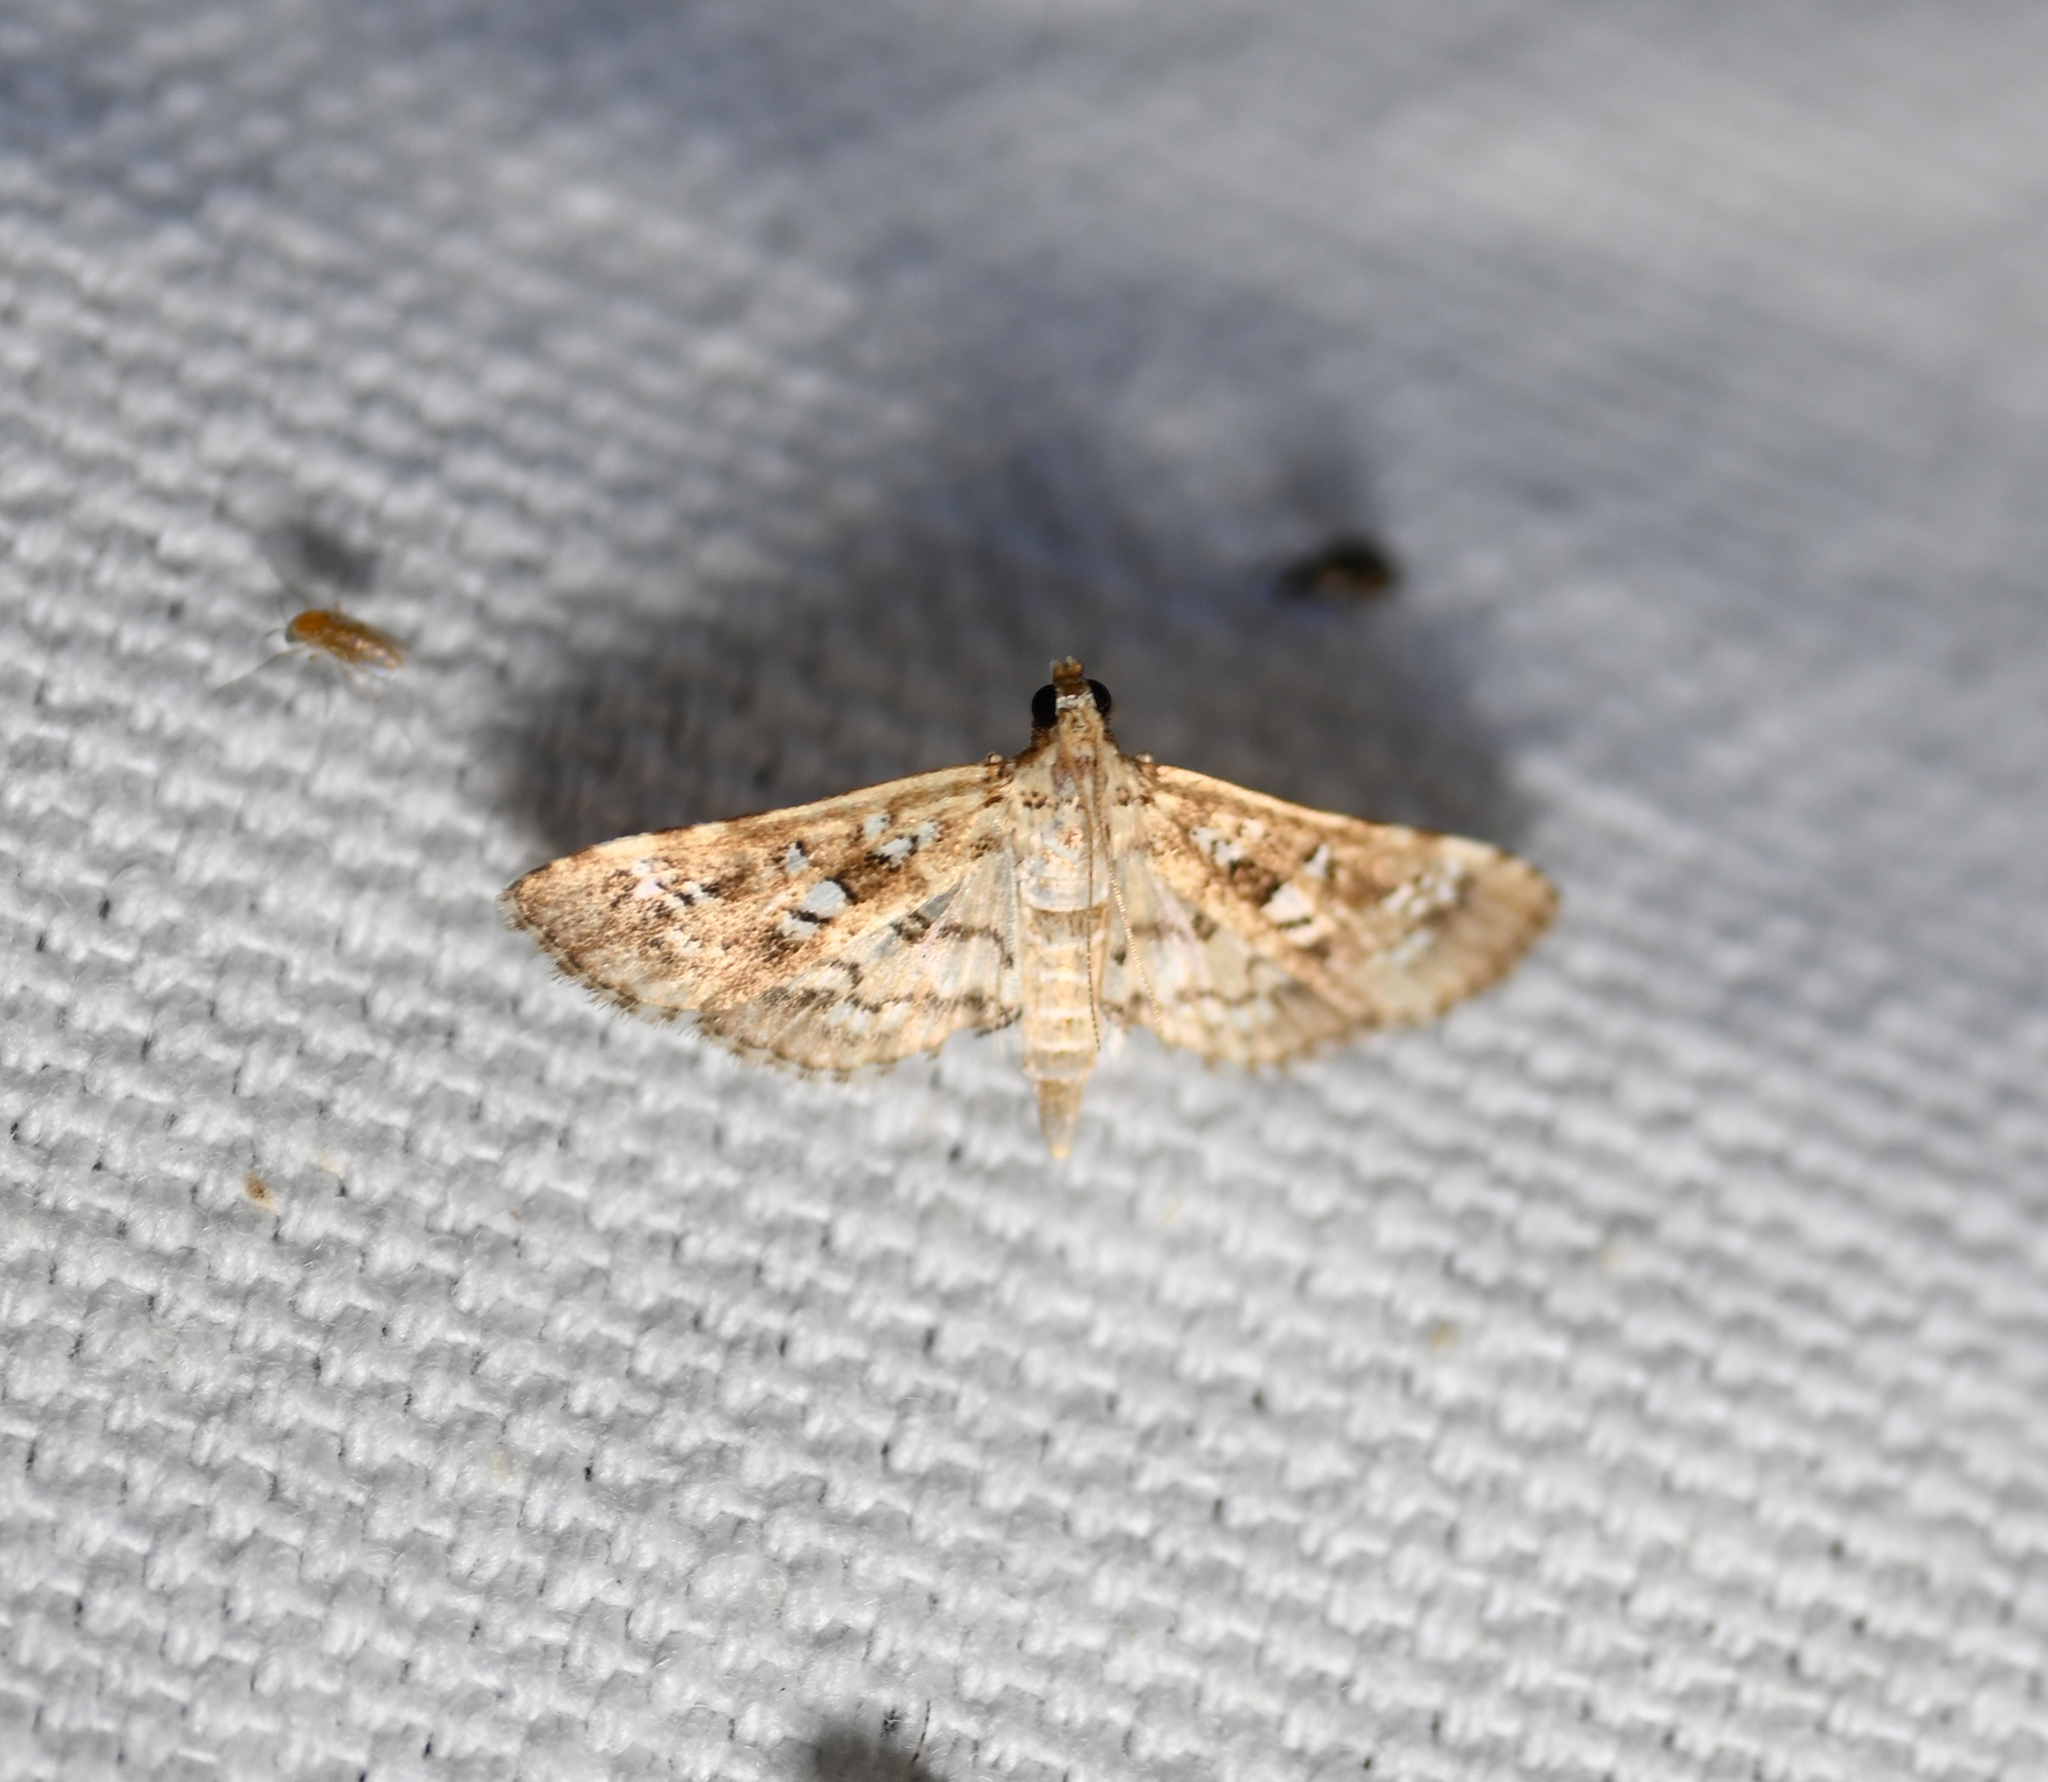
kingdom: Animalia
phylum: Arthropoda
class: Insecta
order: Lepidoptera
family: Crambidae
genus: Samea
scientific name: Samea multiplicalis
